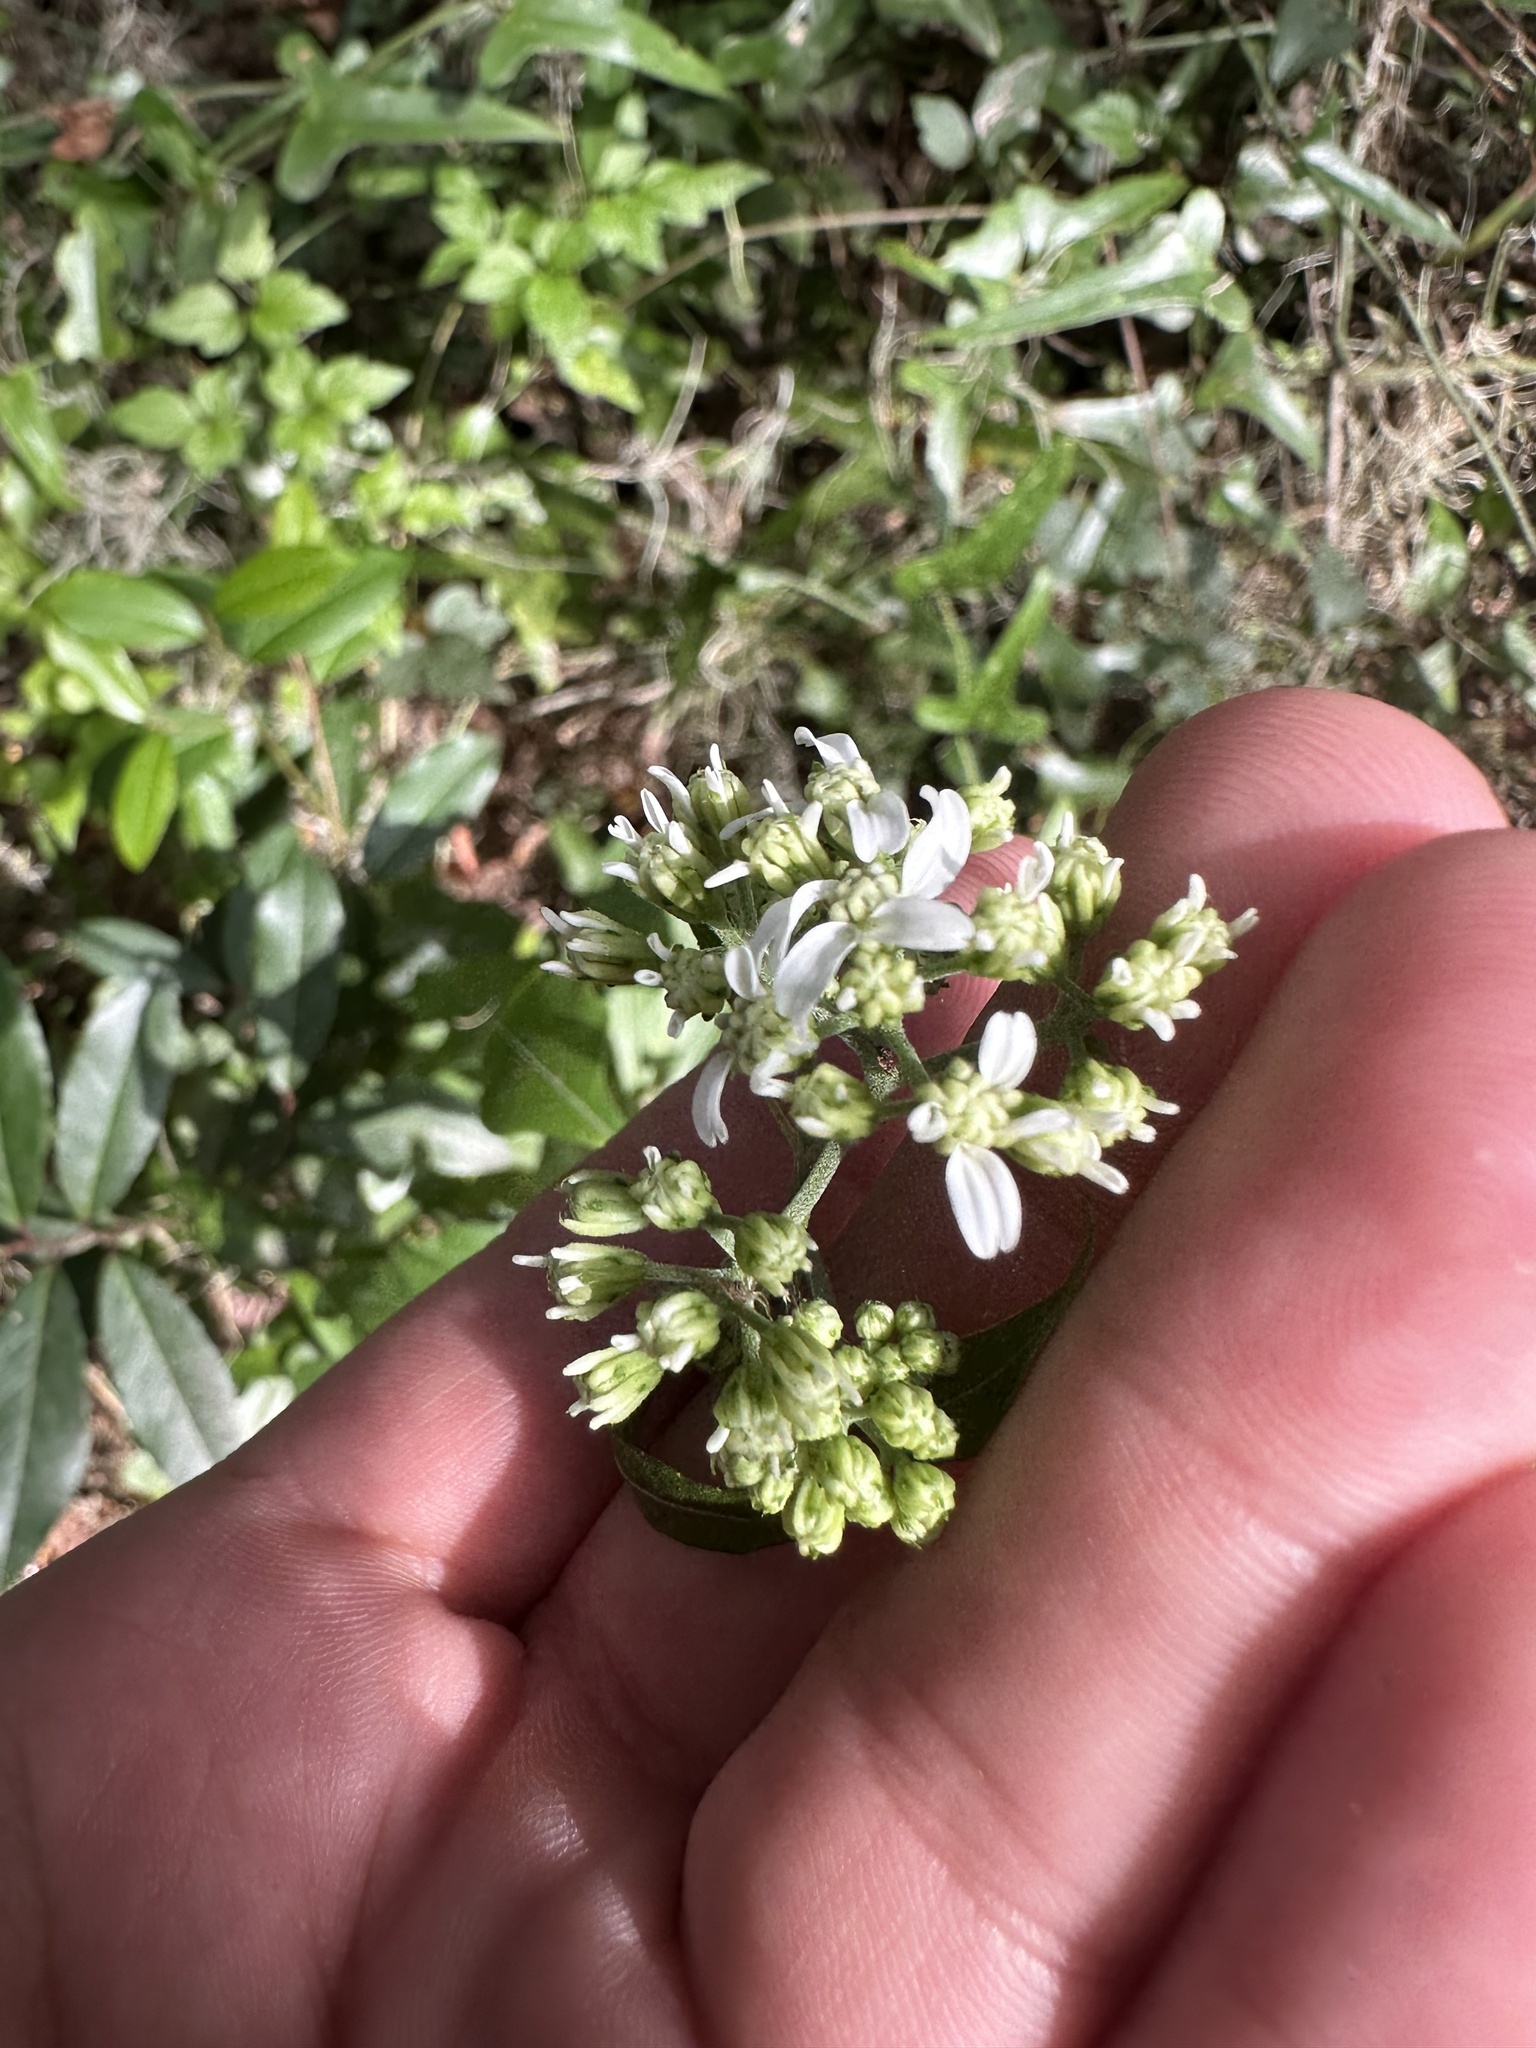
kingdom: Plantae
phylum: Tracheophyta
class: Magnoliopsida
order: Asterales
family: Asteraceae
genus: Verbesina
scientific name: Verbesina virginica
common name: Frostweed
